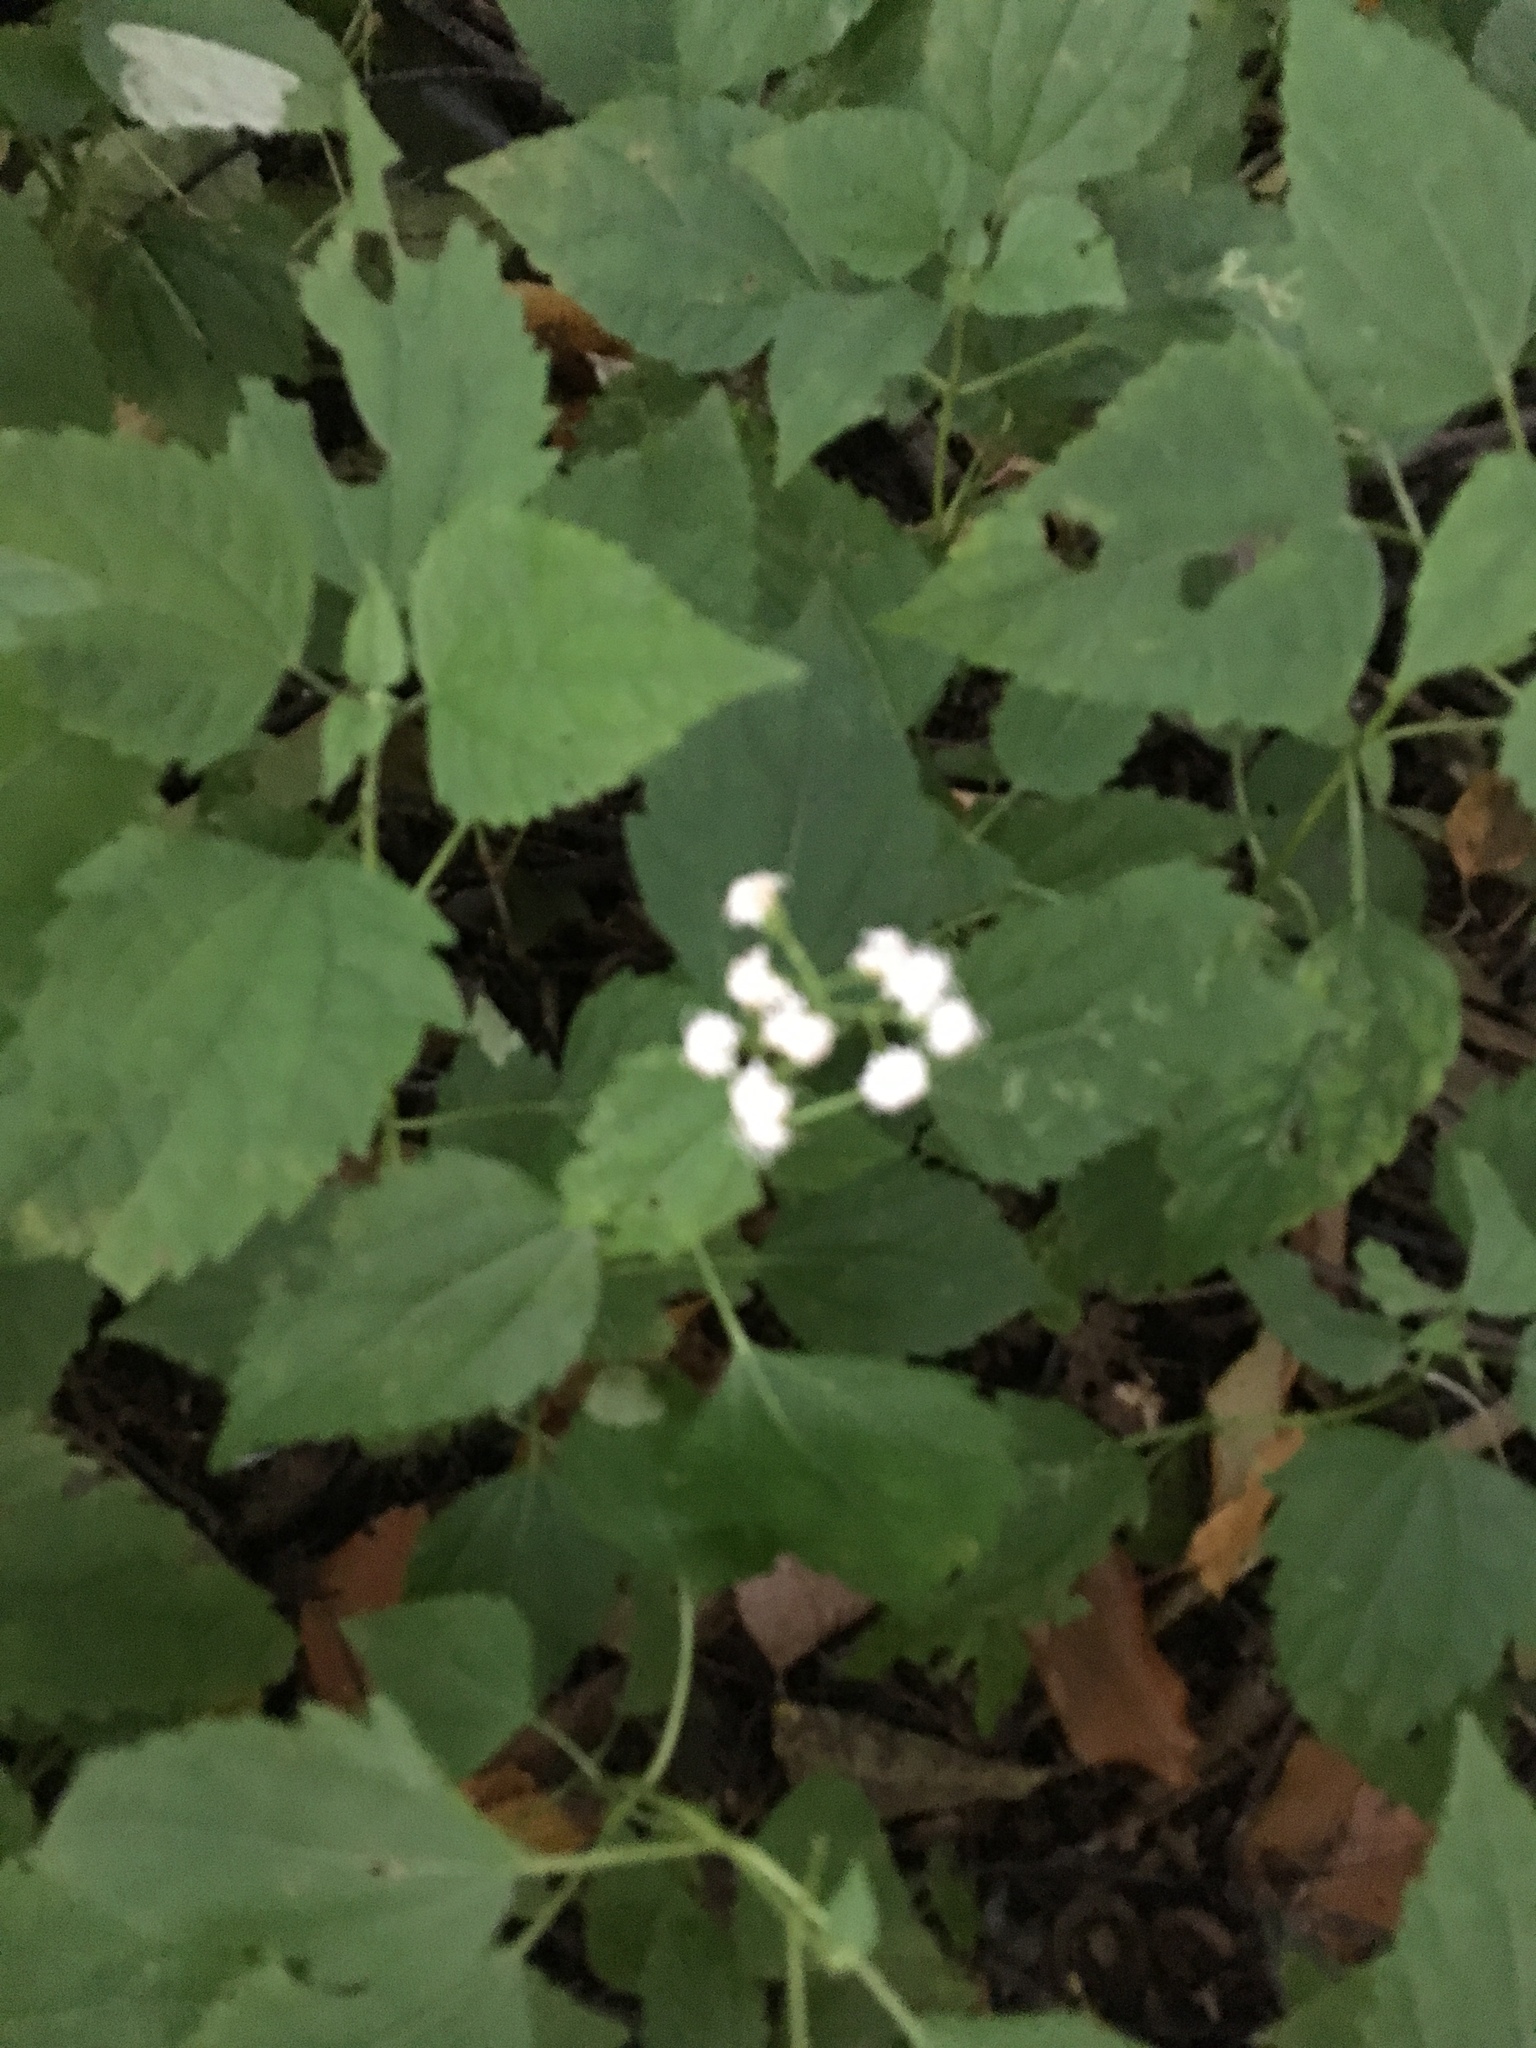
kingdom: Plantae
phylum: Tracheophyta
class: Magnoliopsida
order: Asterales
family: Asteraceae
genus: Ageratina
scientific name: Ageratina altissima
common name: White snakeroot
